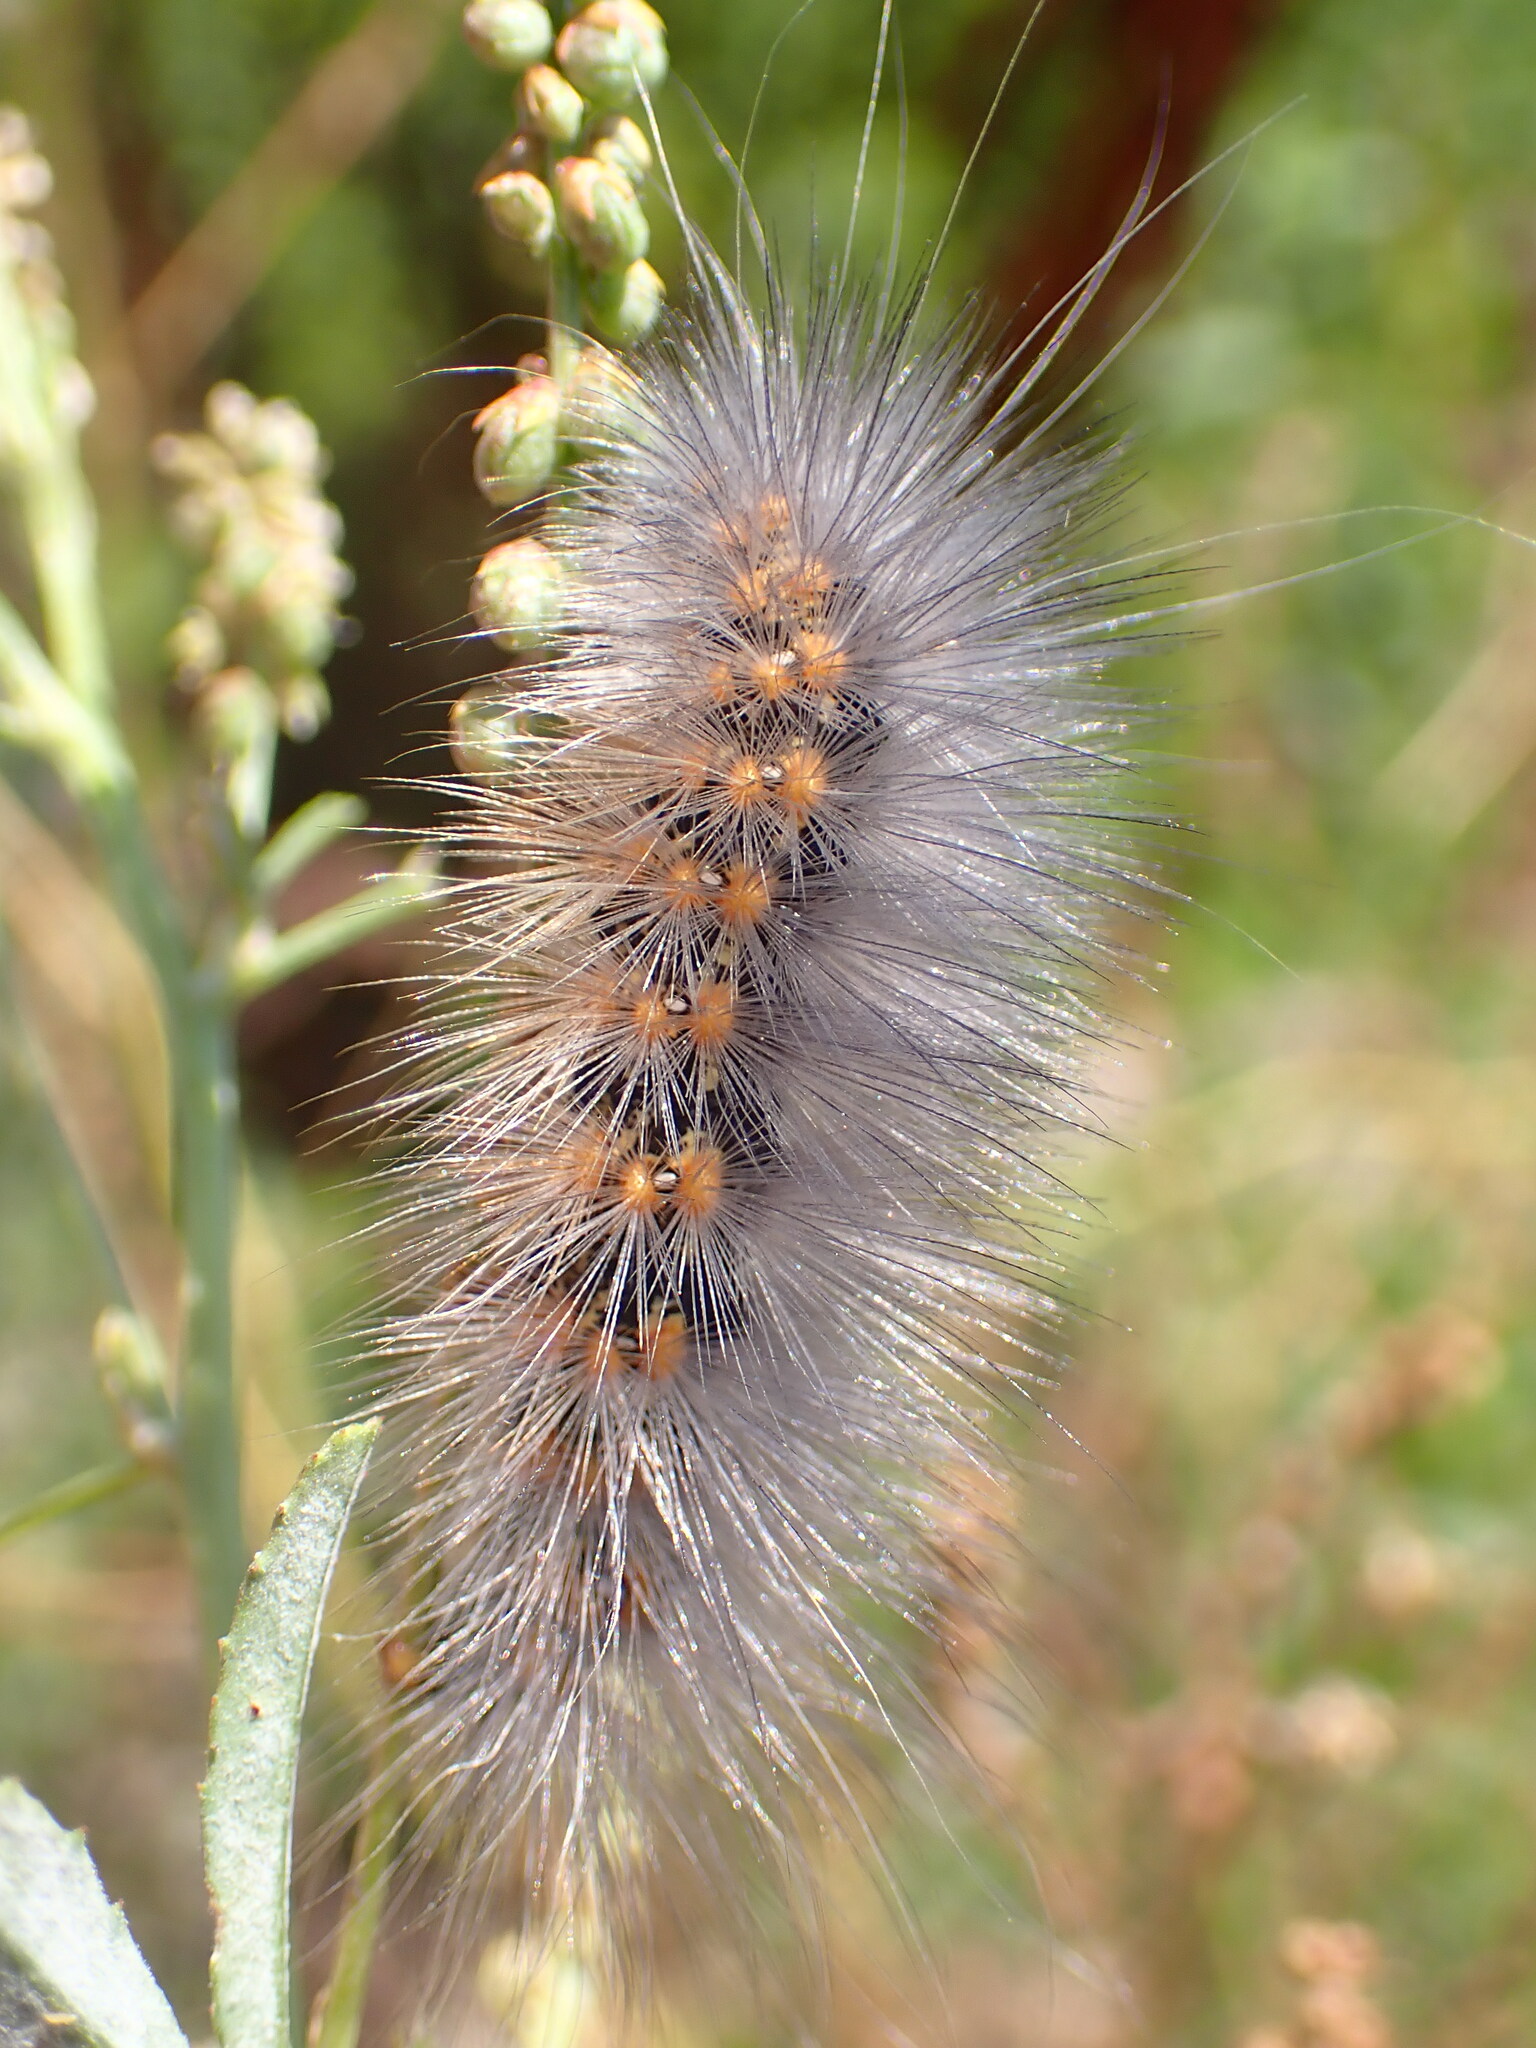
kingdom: Animalia
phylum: Arthropoda
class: Insecta
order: Lepidoptera
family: Erebidae
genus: Estigmene
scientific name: Estigmene acrea
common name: Salt marsh moth
